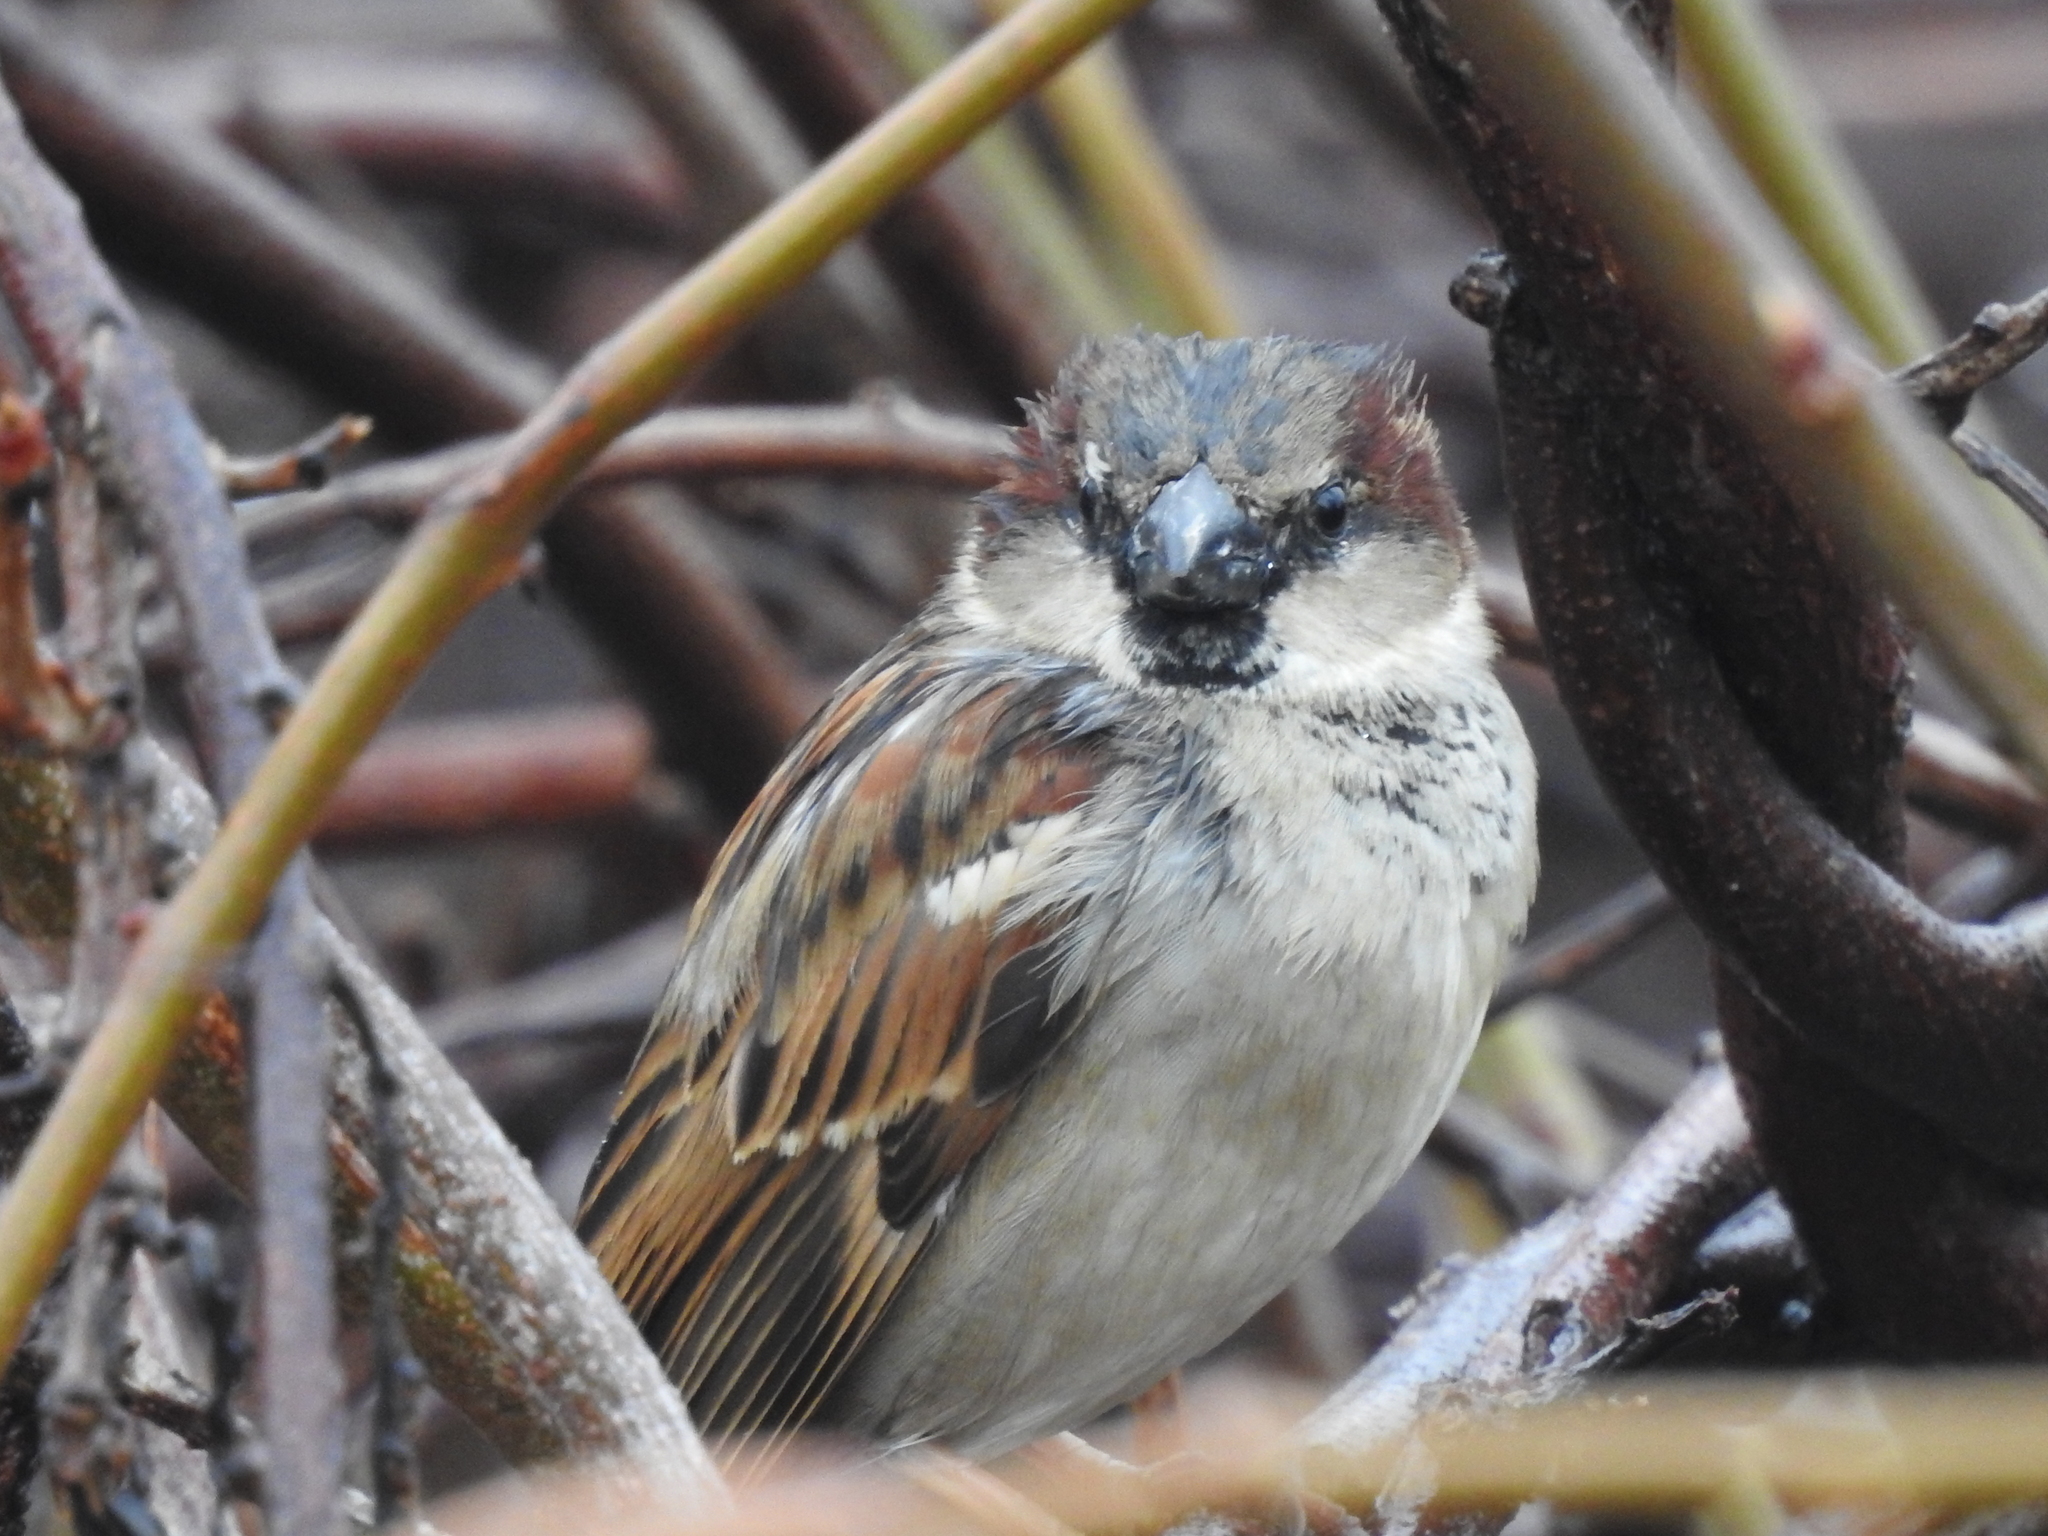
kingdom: Animalia
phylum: Chordata
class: Aves
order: Passeriformes
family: Passeridae
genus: Passer
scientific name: Passer domesticus
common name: House sparrow
